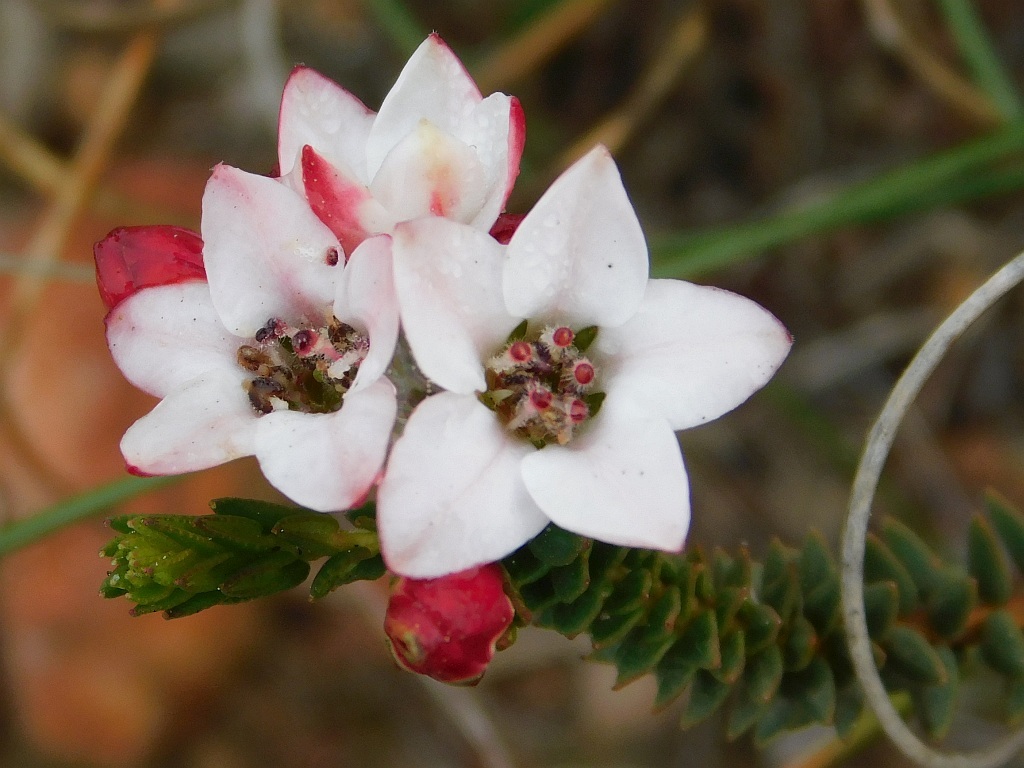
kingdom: Plantae
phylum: Tracheophyta
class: Magnoliopsida
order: Sapindales
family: Rutaceae
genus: Adenandra
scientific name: Adenandra marginata
